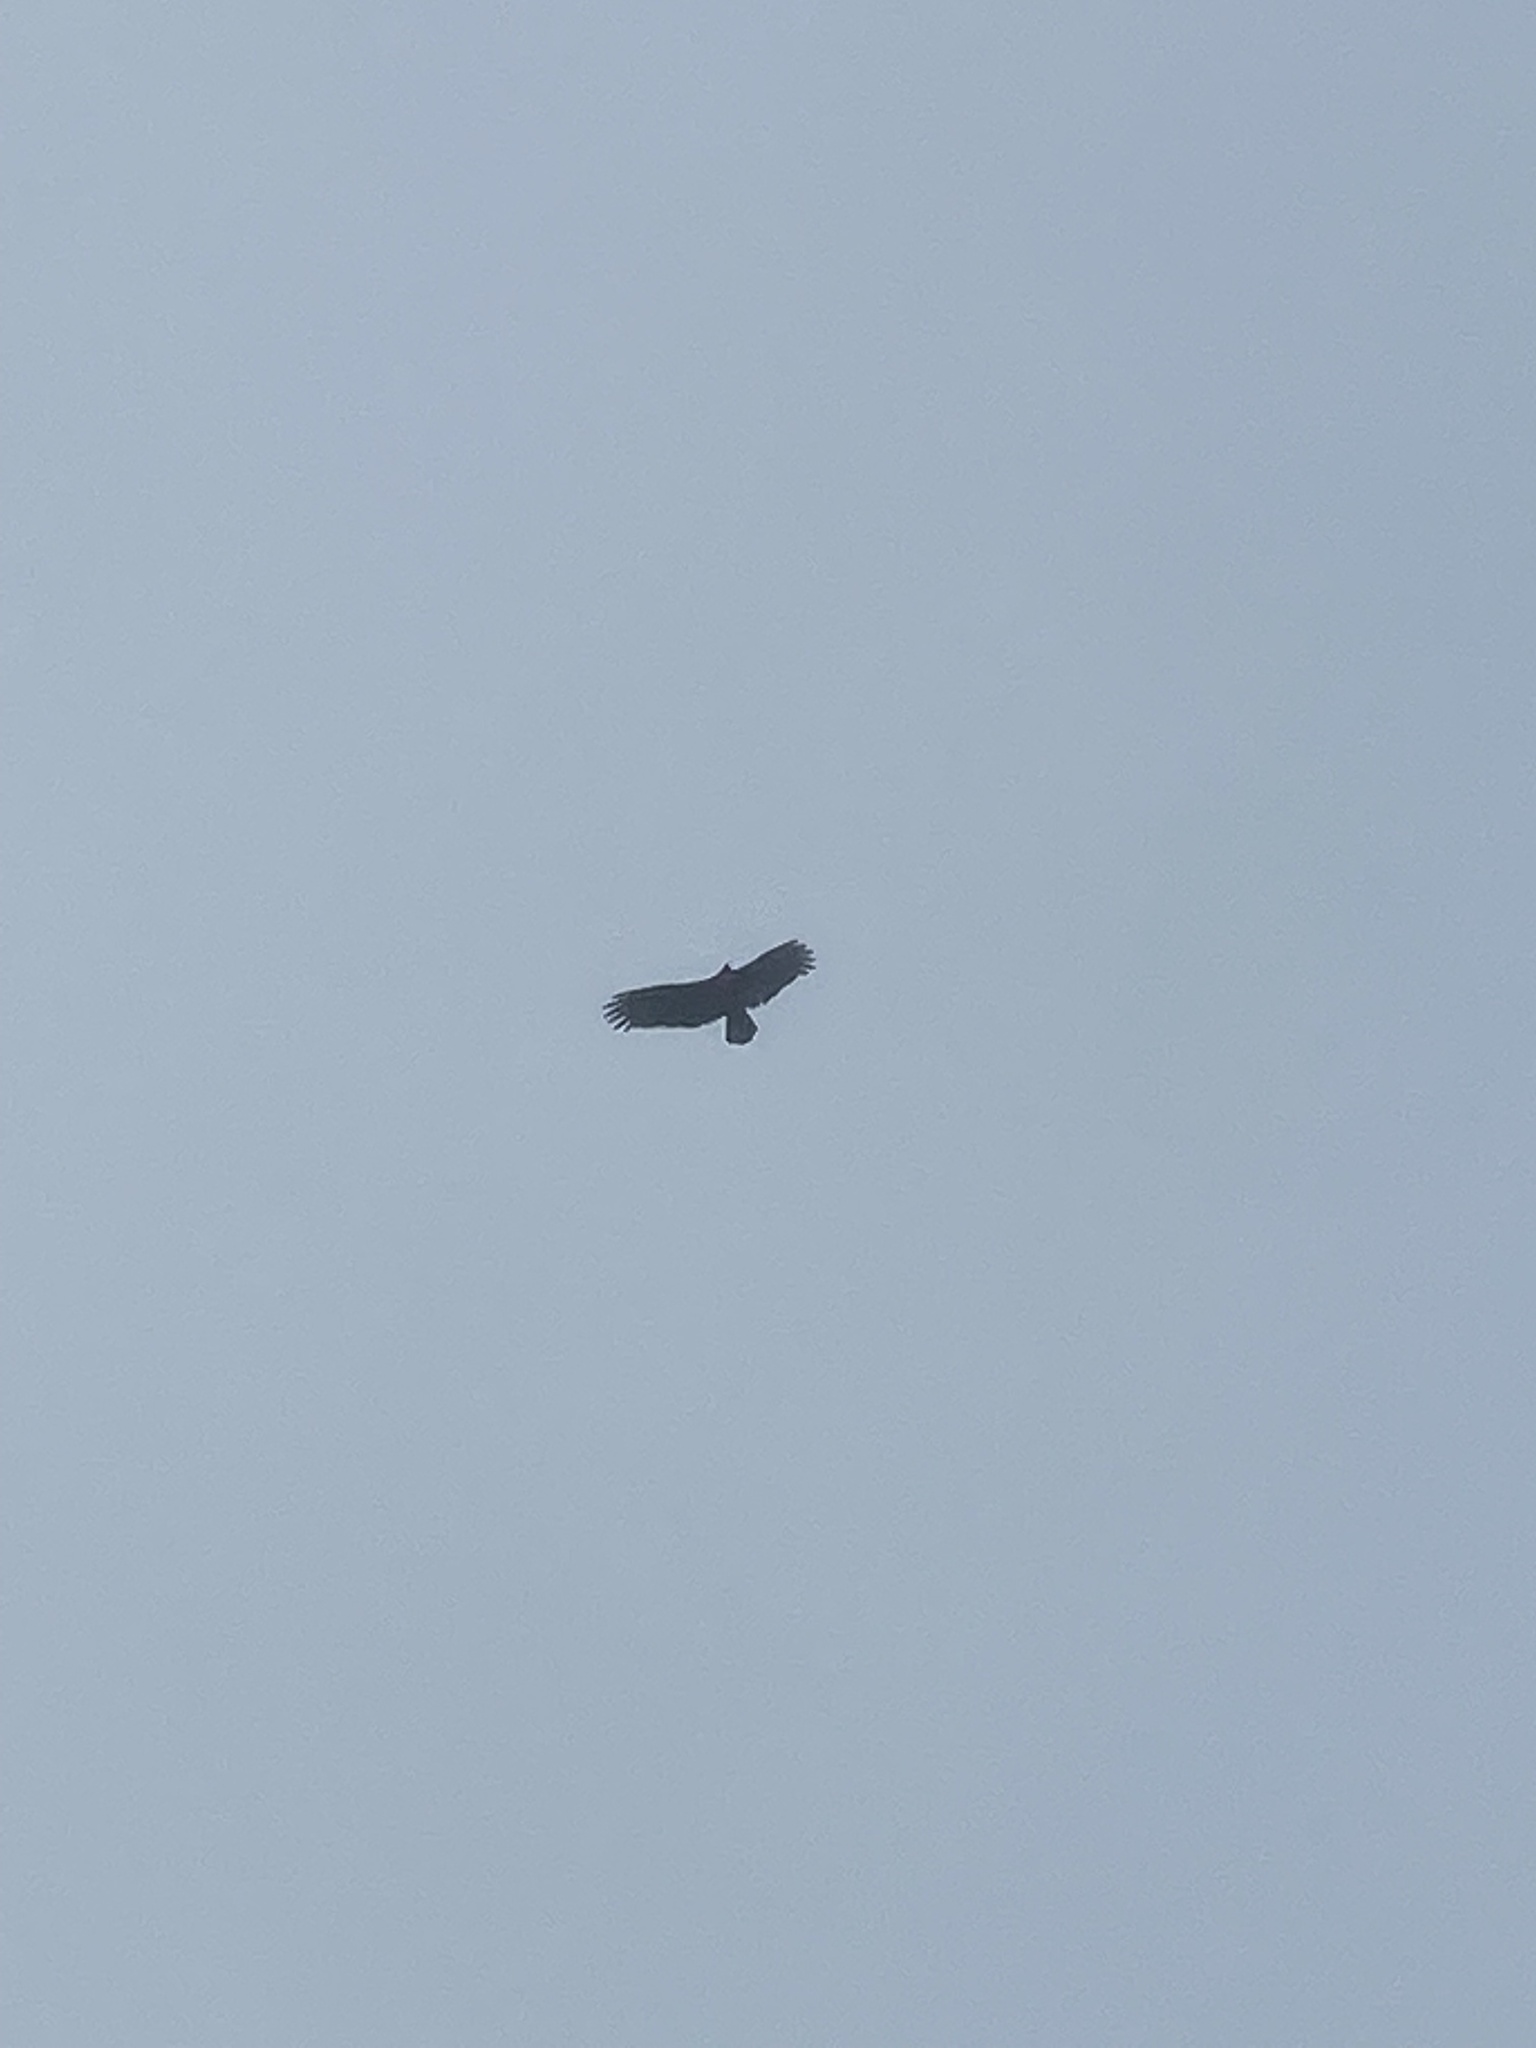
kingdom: Animalia
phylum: Chordata
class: Aves
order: Accipitriformes
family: Cathartidae
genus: Cathartes
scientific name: Cathartes aura
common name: Turkey vulture
